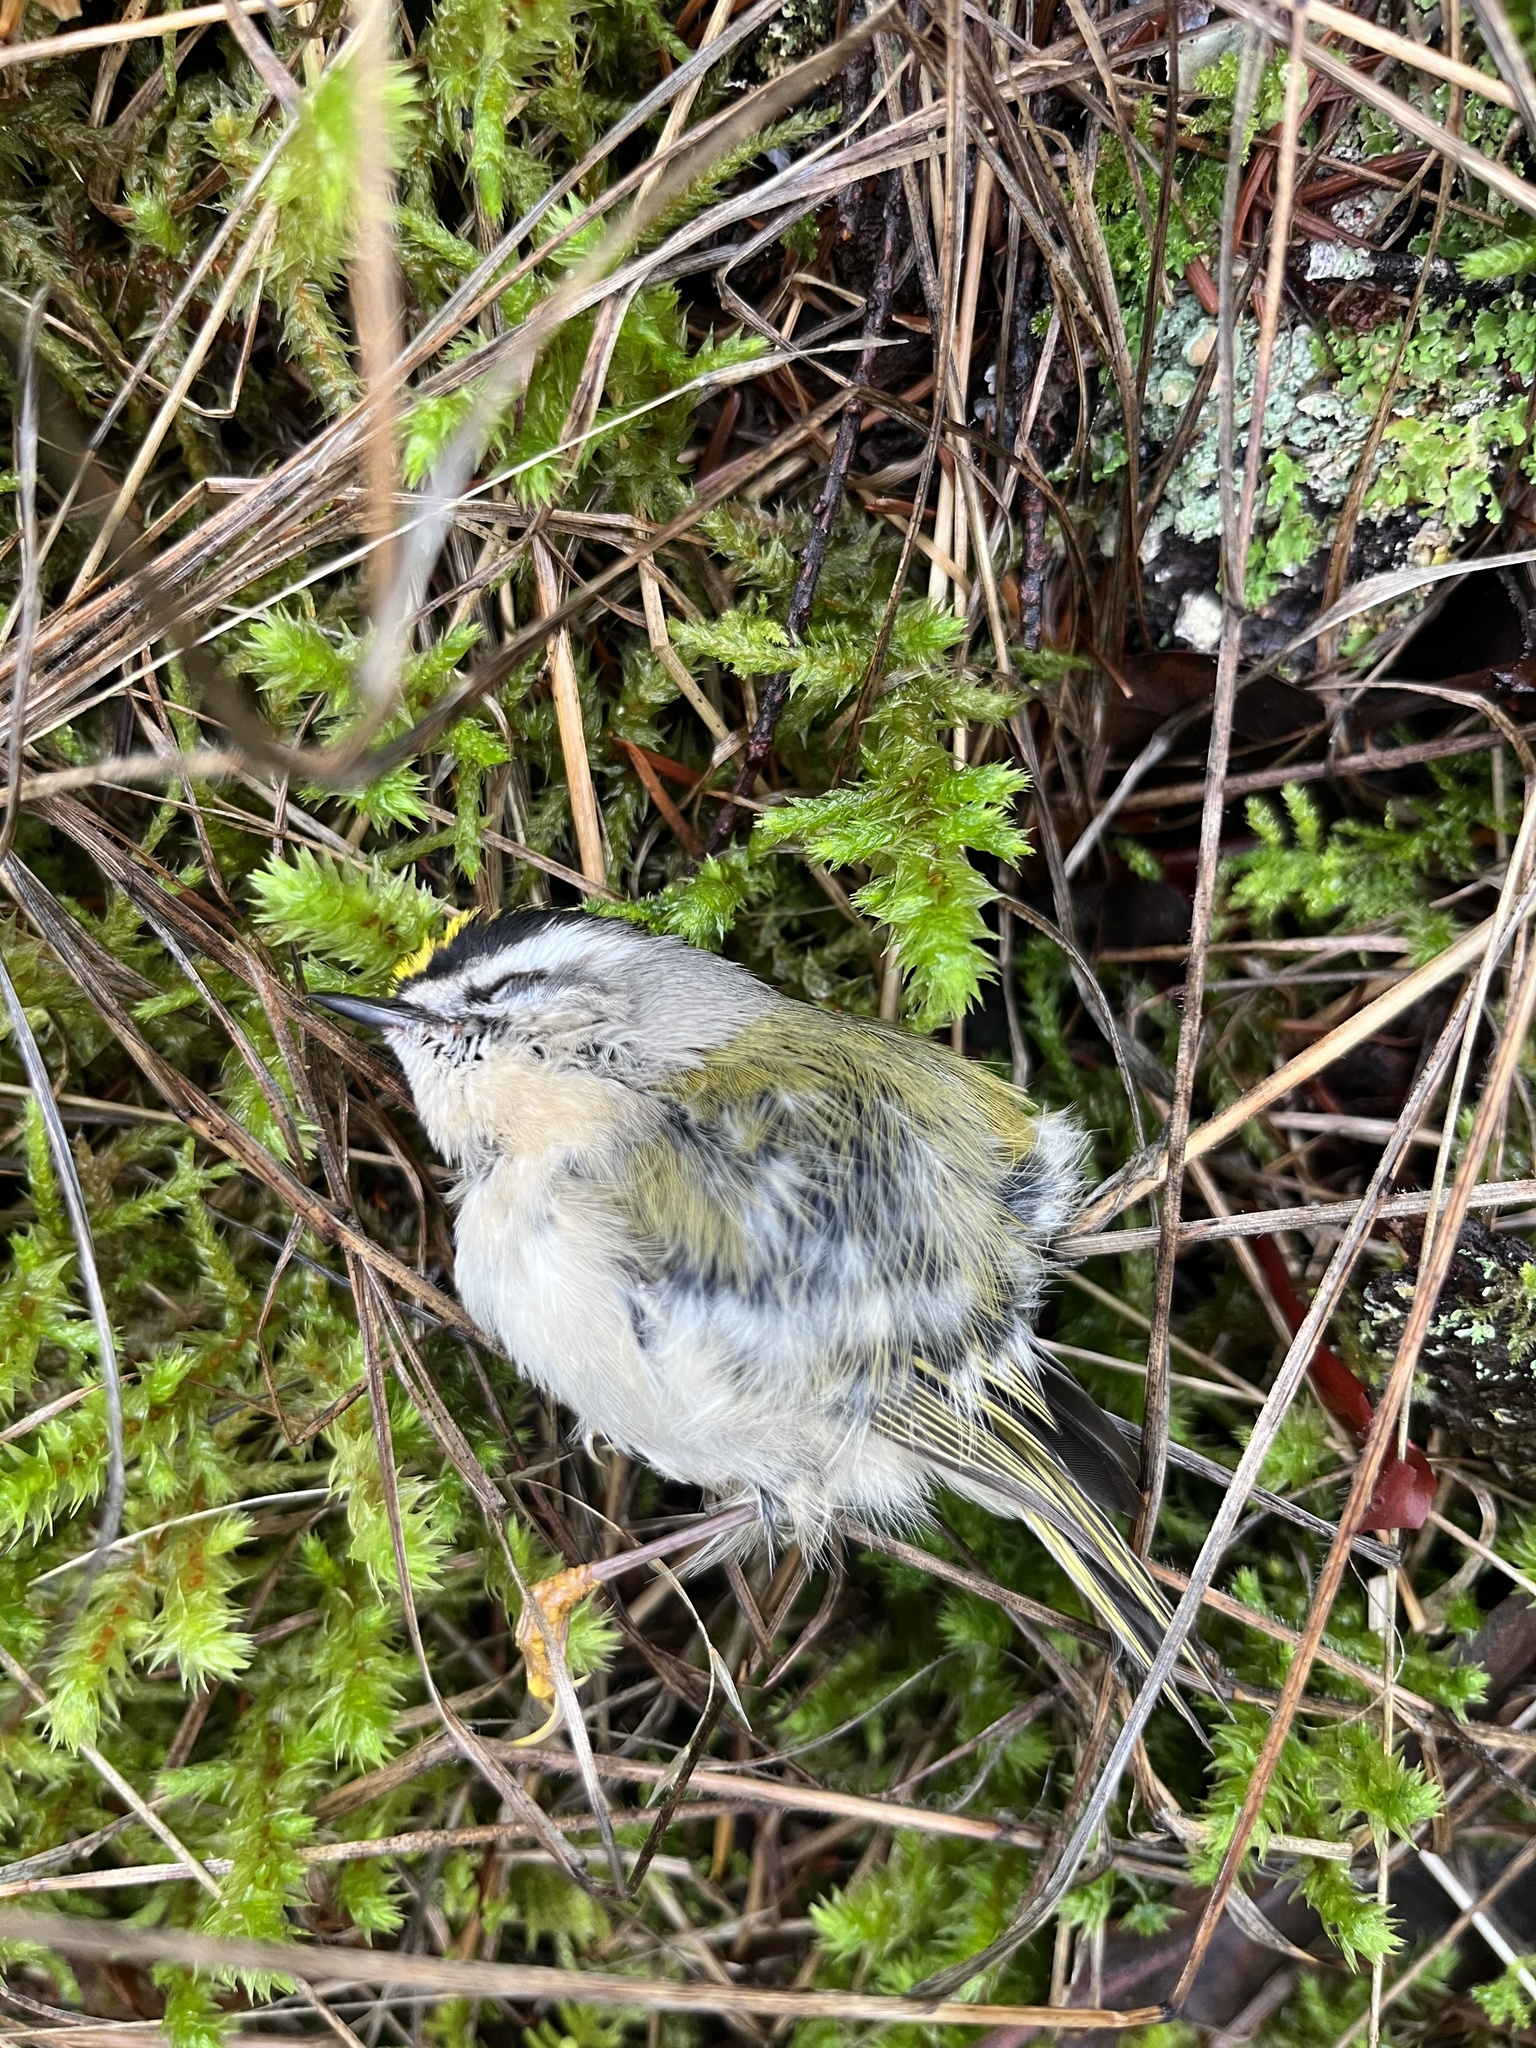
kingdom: Animalia
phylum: Chordata
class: Aves
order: Passeriformes
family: Regulidae
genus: Regulus
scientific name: Regulus satrapa
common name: Golden-crowned kinglet
